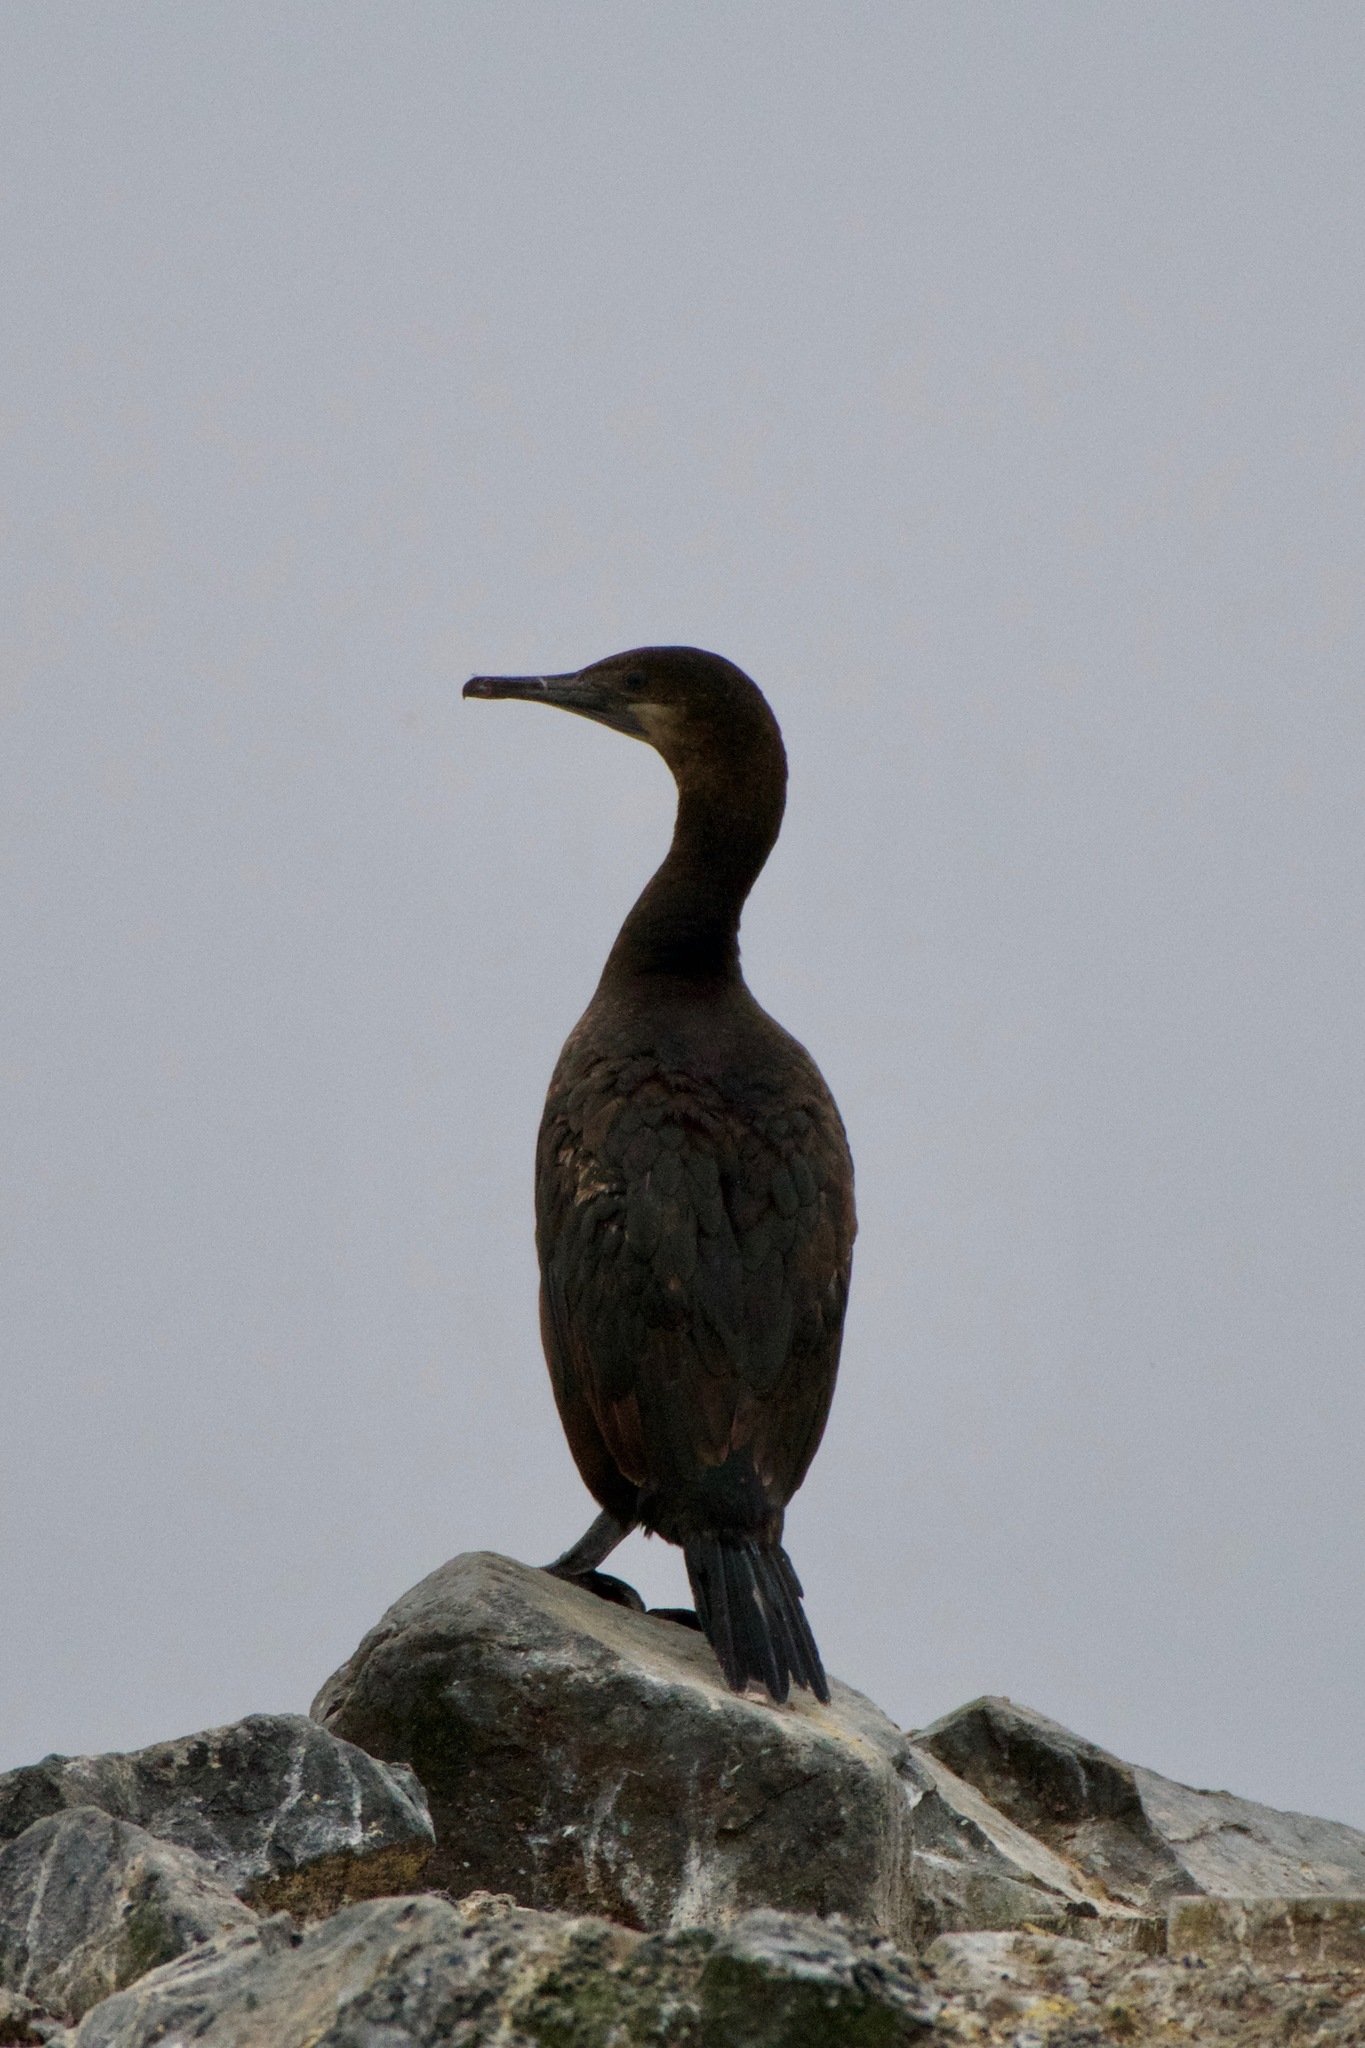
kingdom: Animalia
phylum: Chordata
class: Aves
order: Suliformes
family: Phalacrocoracidae
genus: Urile
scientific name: Urile penicillatus
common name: Brandt's cormorant
